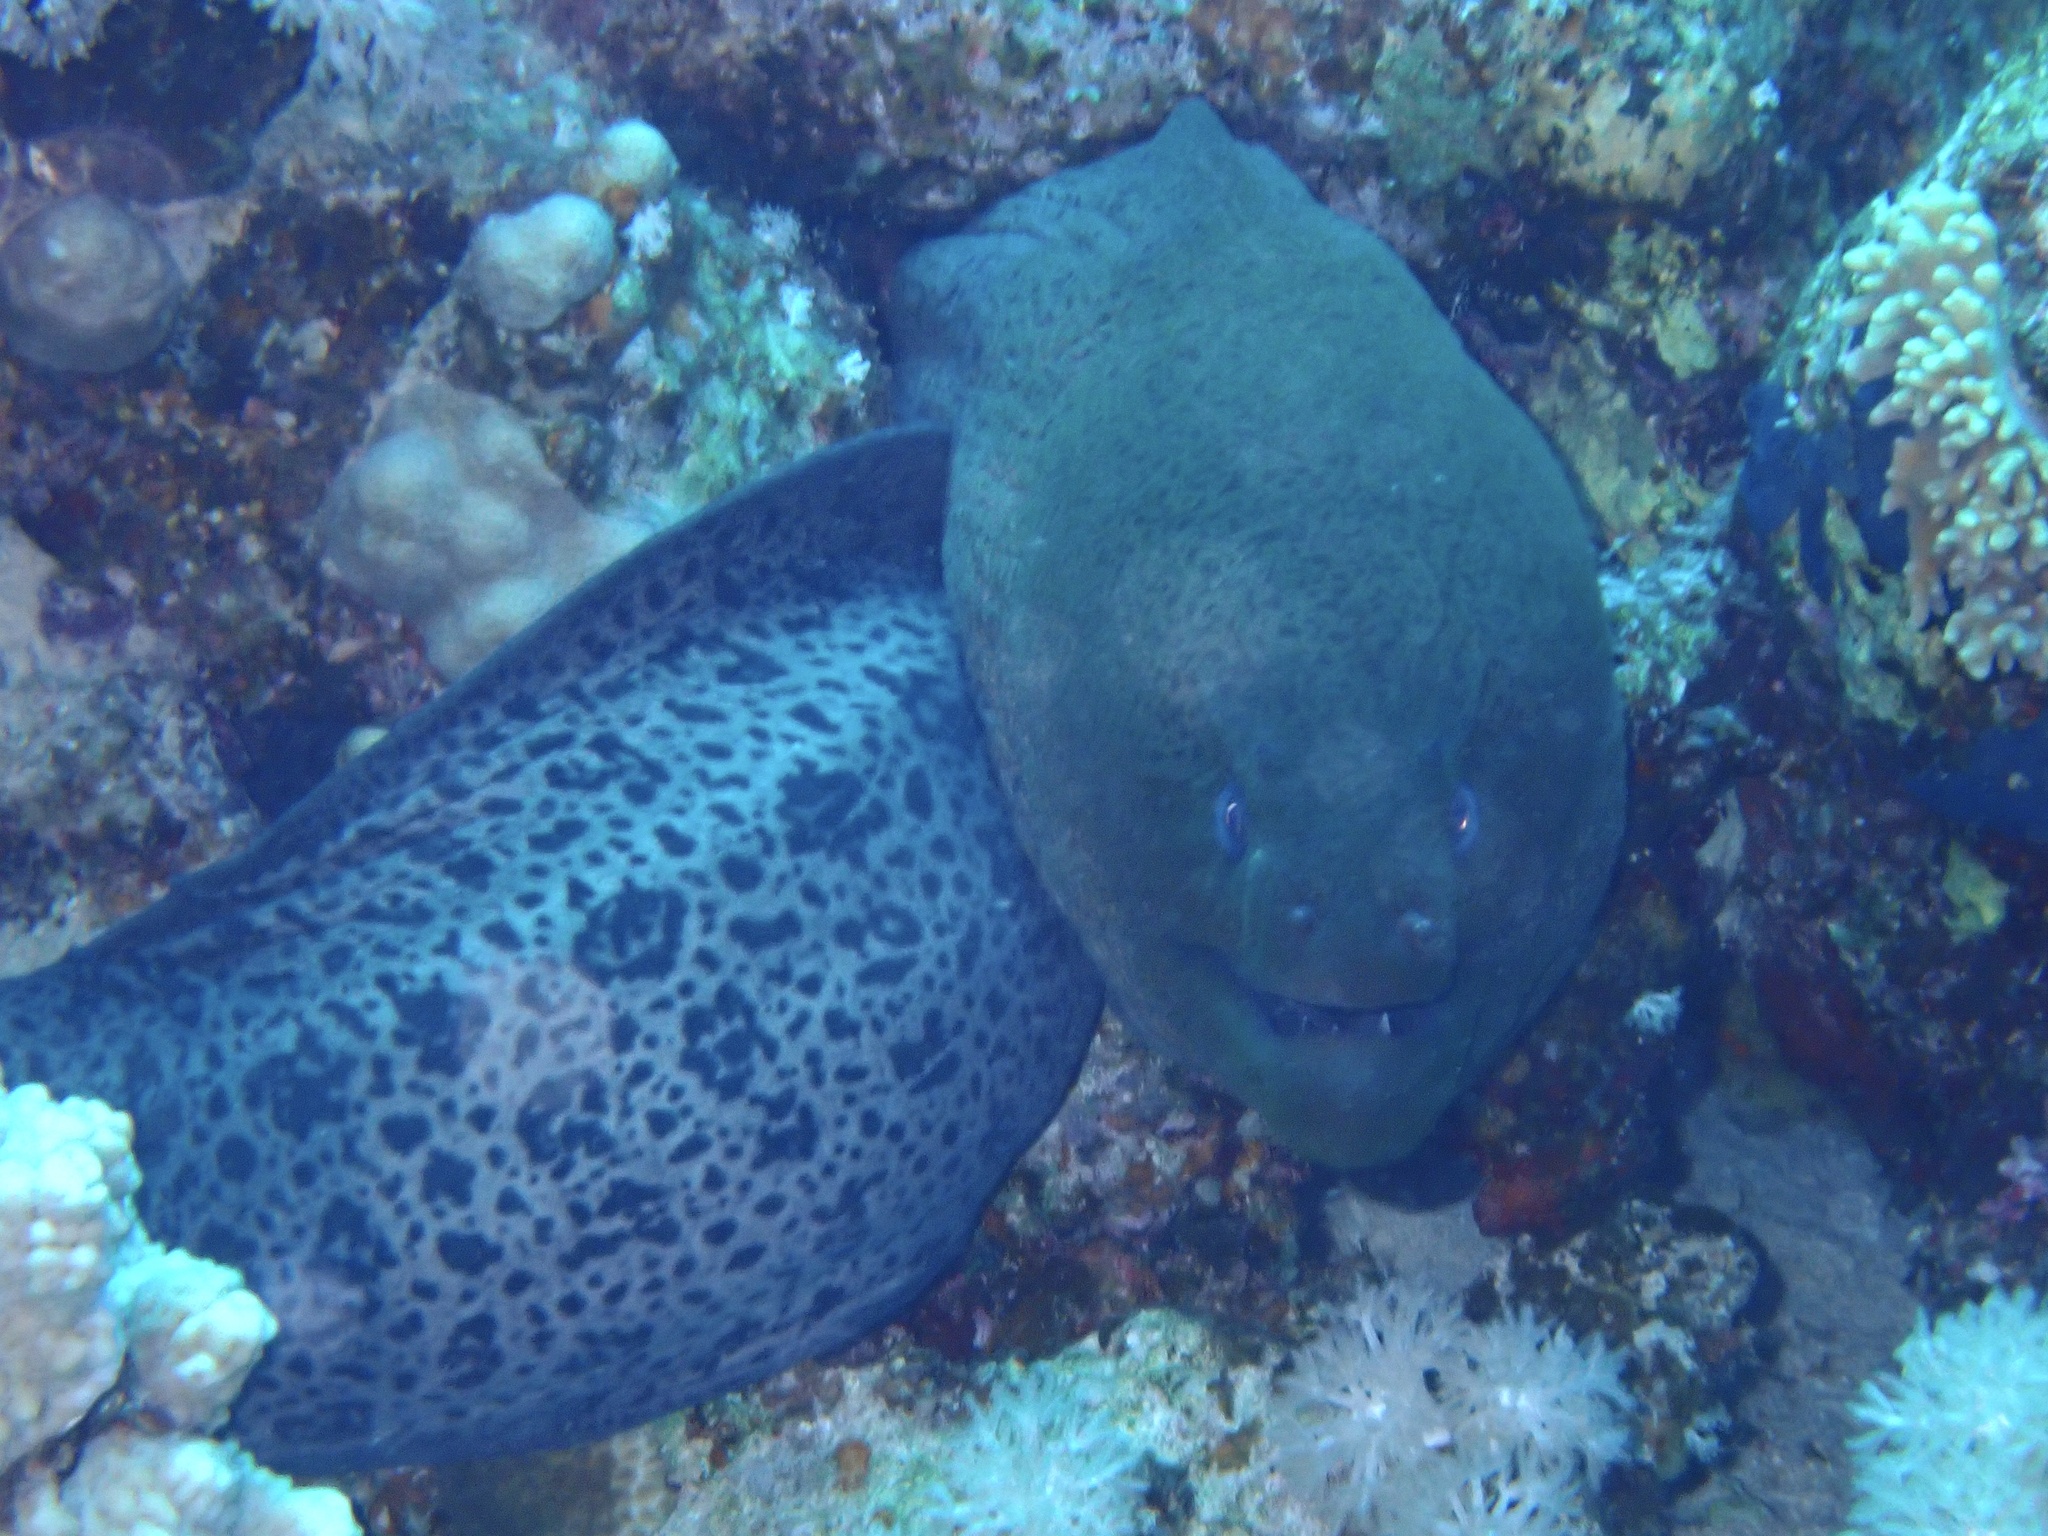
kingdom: Animalia
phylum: Chordata
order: Anguilliformes
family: Muraenidae
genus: Gymnothorax
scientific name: Gymnothorax javanicus
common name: Giant moray
